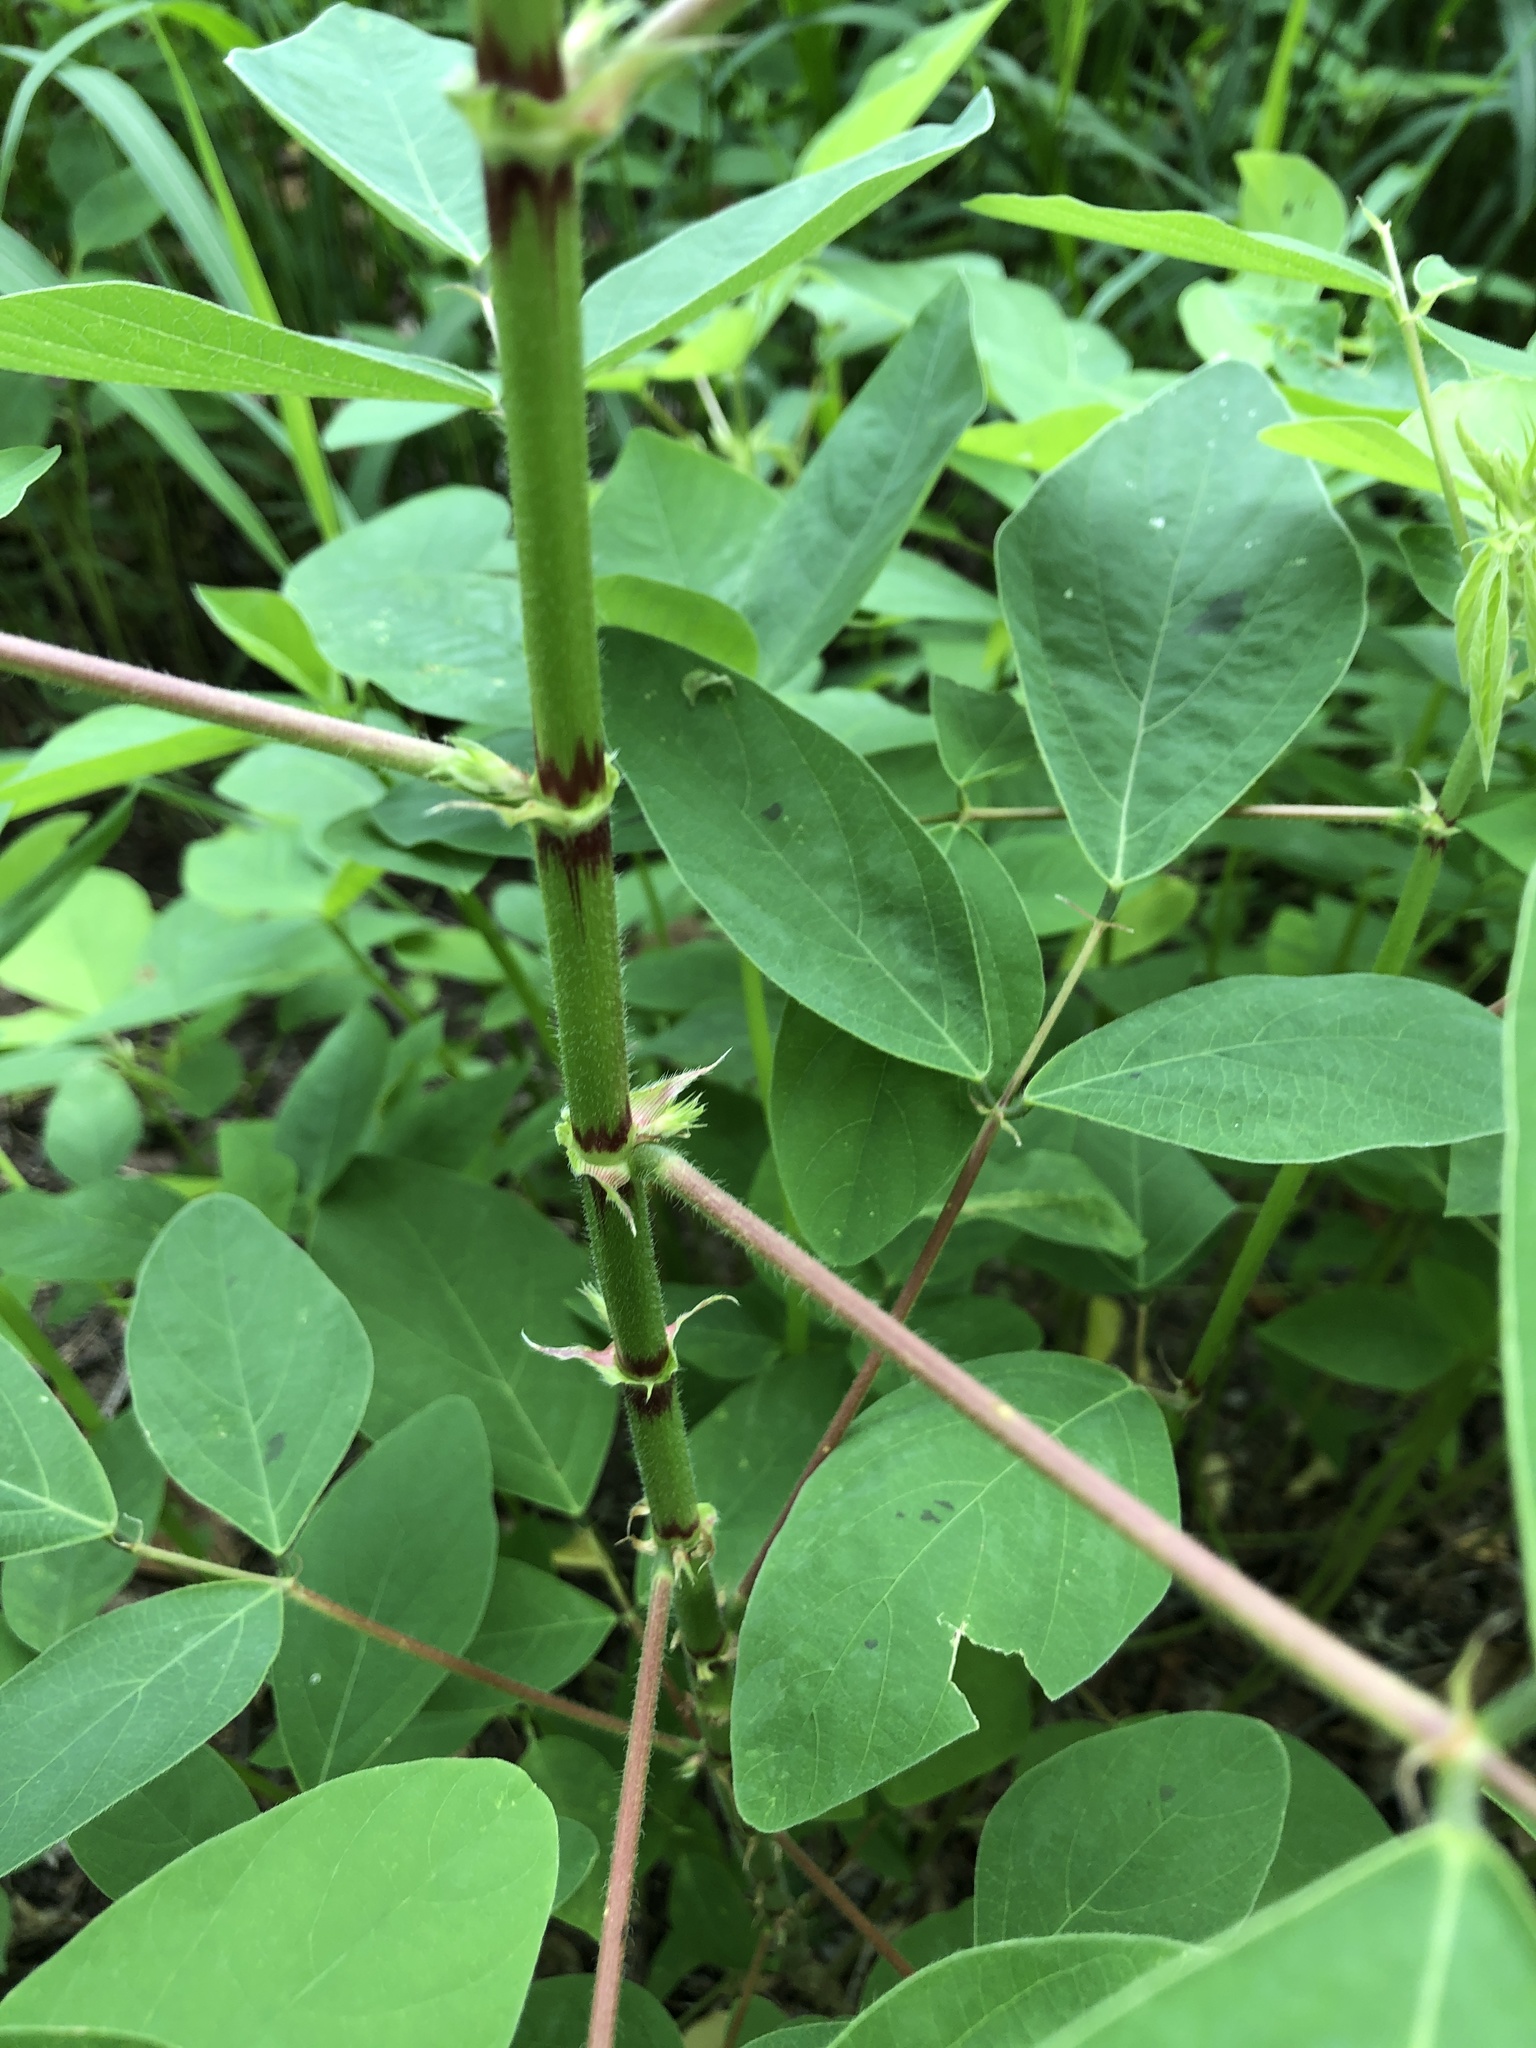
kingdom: Plantae
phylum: Tracheophyta
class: Magnoliopsida
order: Fabales
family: Fabaceae
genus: Desmodium
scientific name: Desmodium tortuosum
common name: Dixie ticktrefoil
